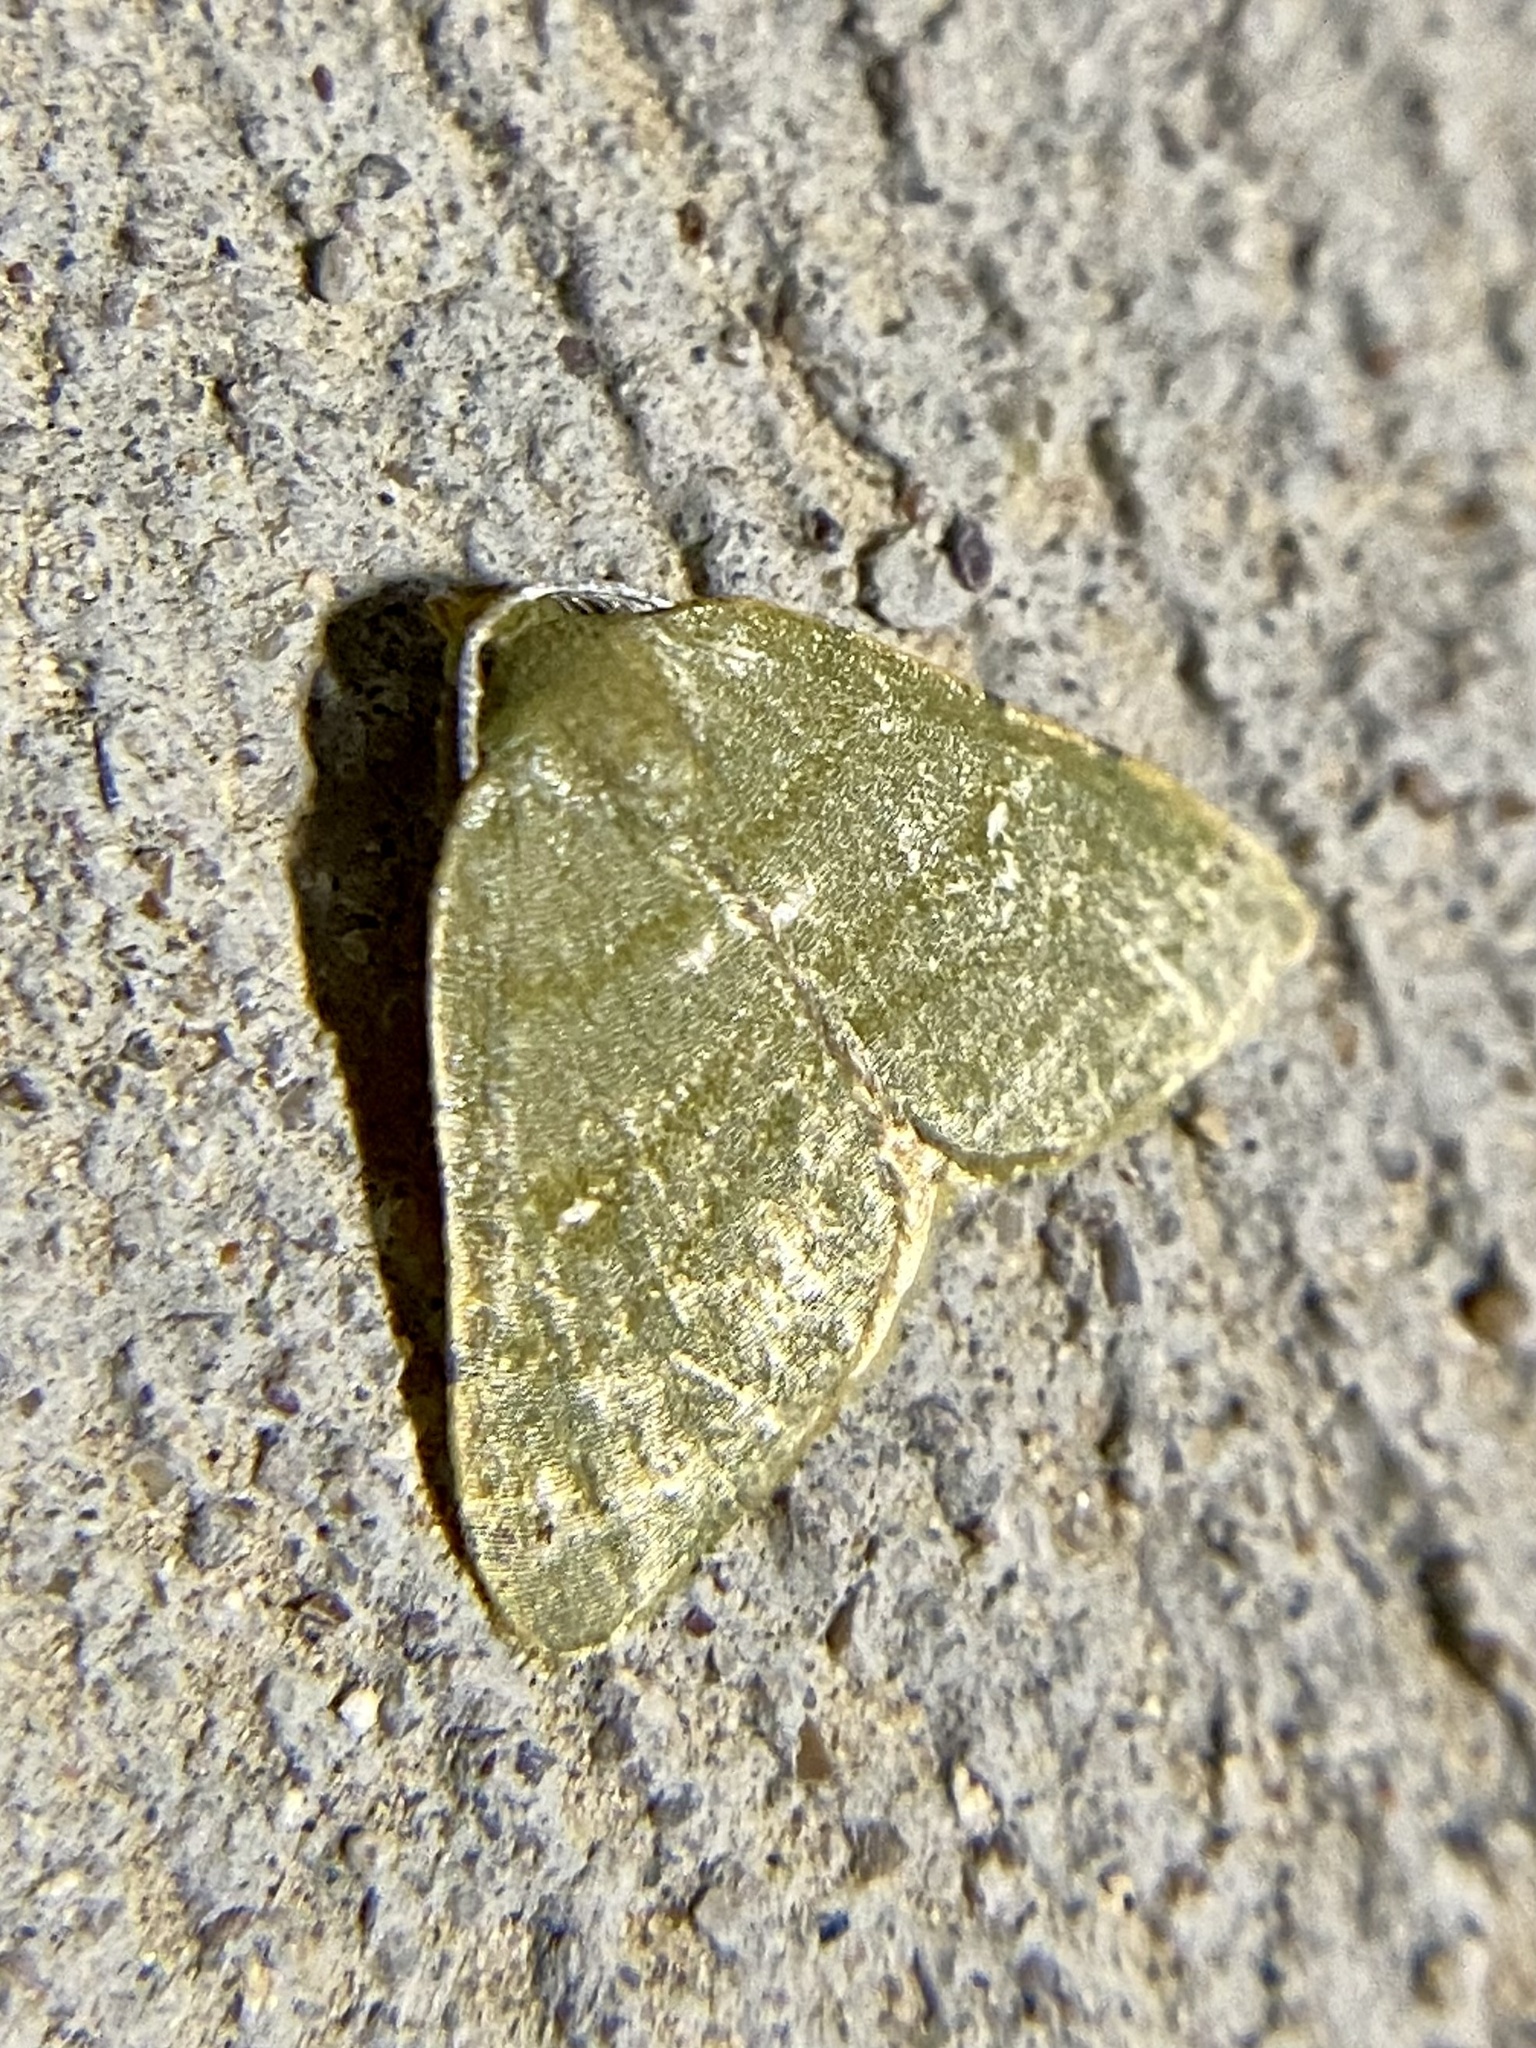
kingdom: Animalia
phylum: Arthropoda
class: Insecta
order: Lepidoptera
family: Geometridae
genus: Chloraspilates
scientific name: Chloraspilates bicoloraria
